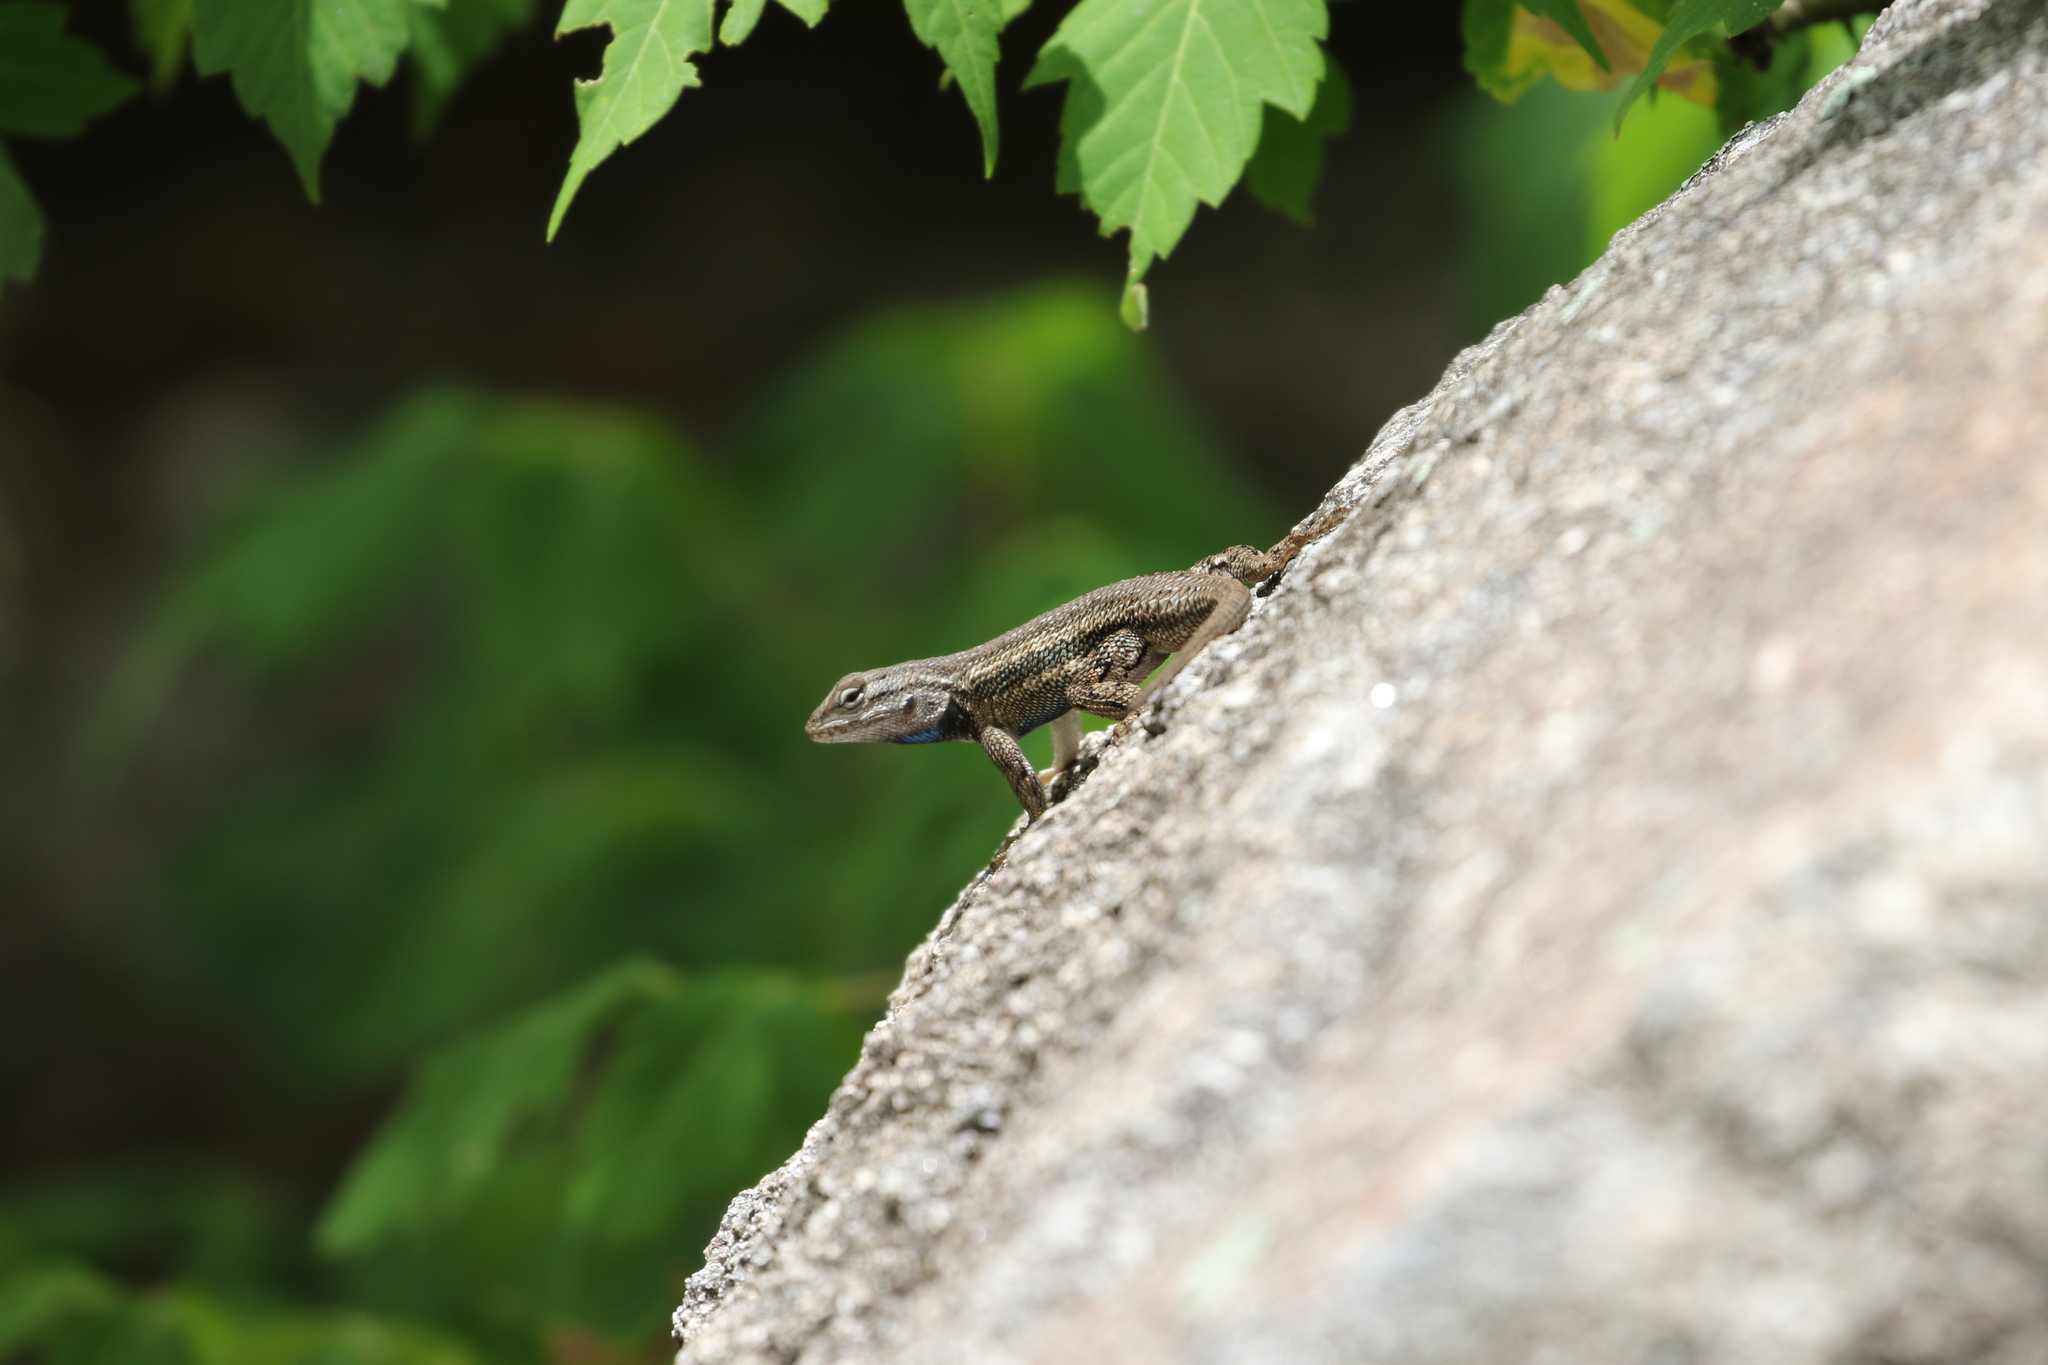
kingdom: Animalia
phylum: Chordata
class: Squamata
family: Phrynosomatidae
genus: Sceloporus
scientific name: Sceloporus cowlesi
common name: White sands prairie lizard
